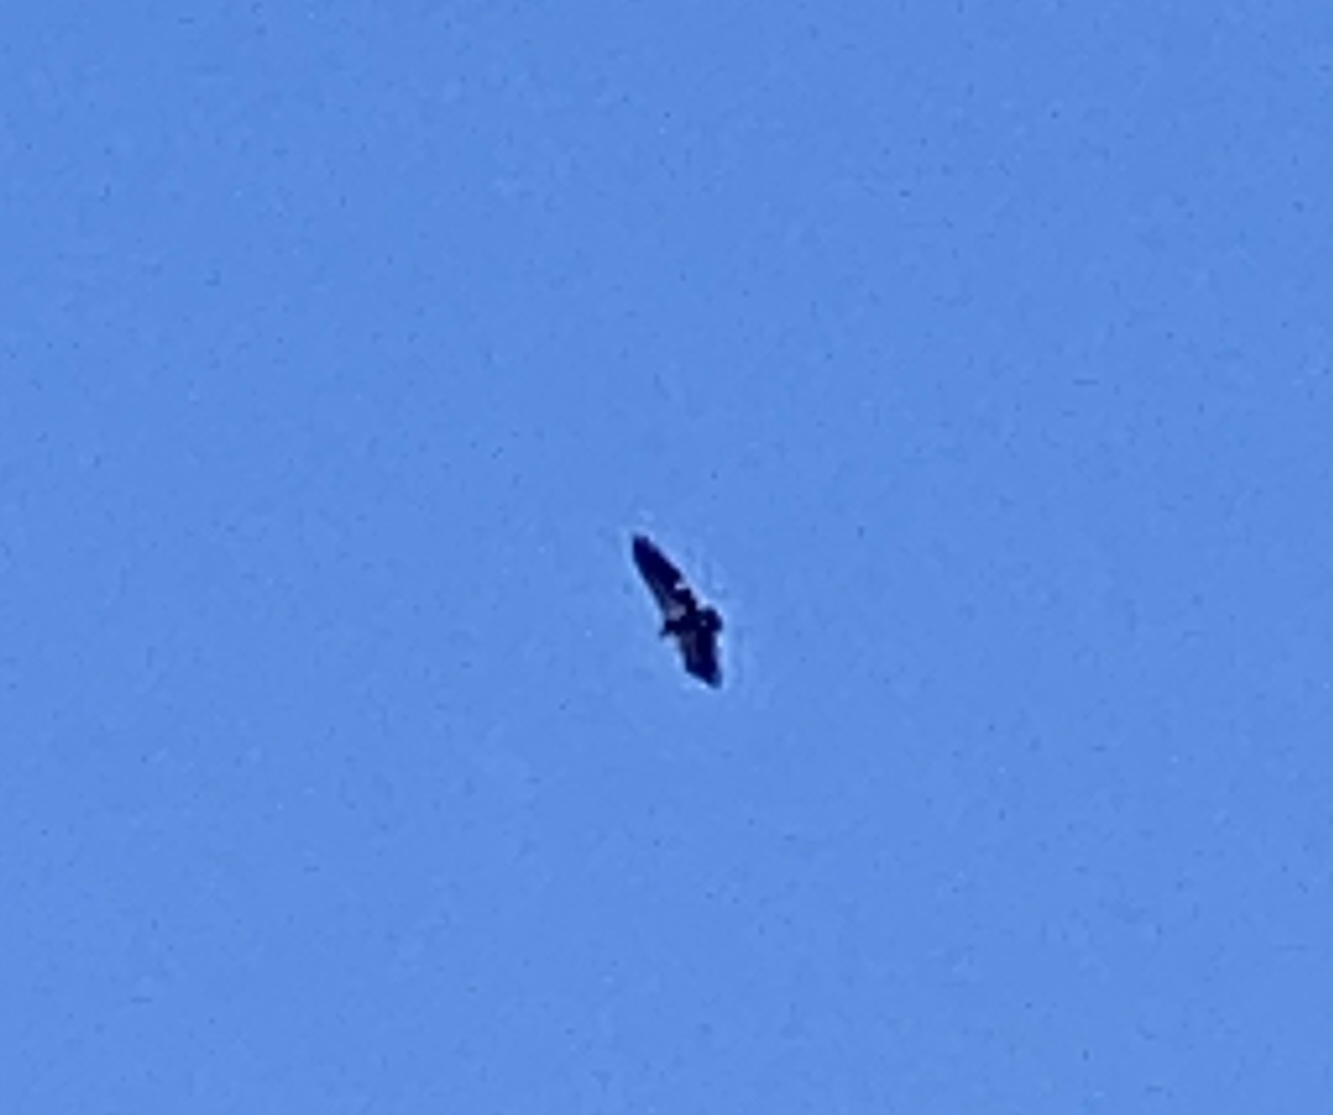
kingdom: Animalia
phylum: Chordata
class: Aves
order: Accipitriformes
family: Cathartidae
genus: Gymnogyps
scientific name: Gymnogyps californianus
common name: California condor
